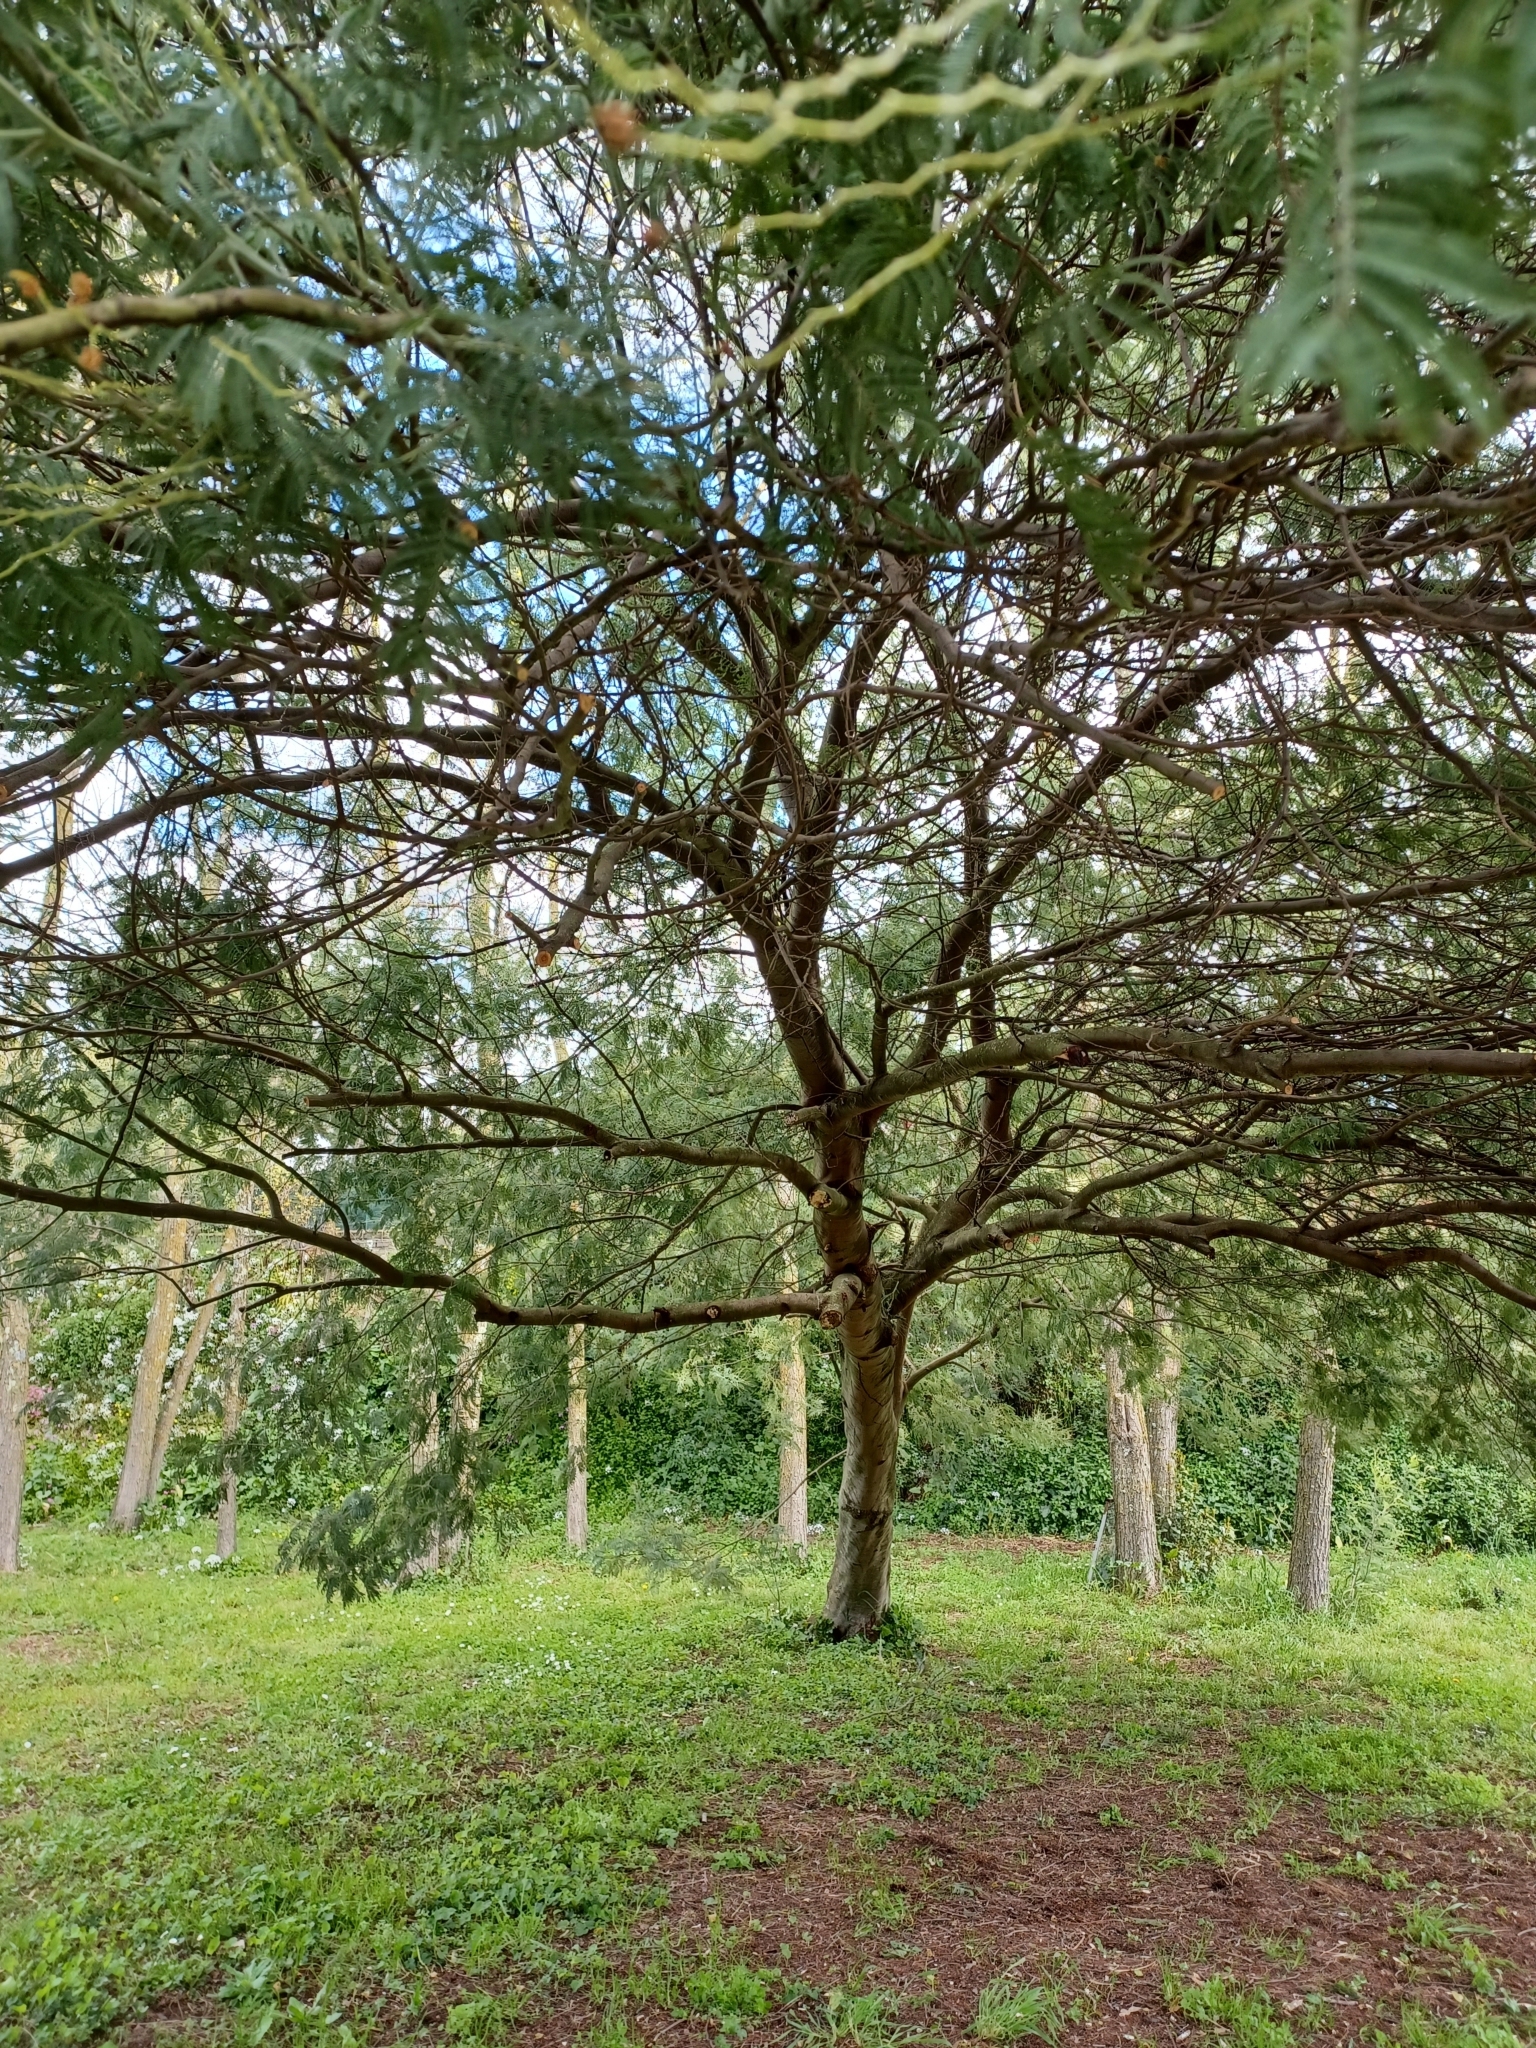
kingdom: Plantae
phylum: Tracheophyta
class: Magnoliopsida
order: Fabales
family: Fabaceae
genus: Acacia
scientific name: Acacia dealbata
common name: Silver wattle
